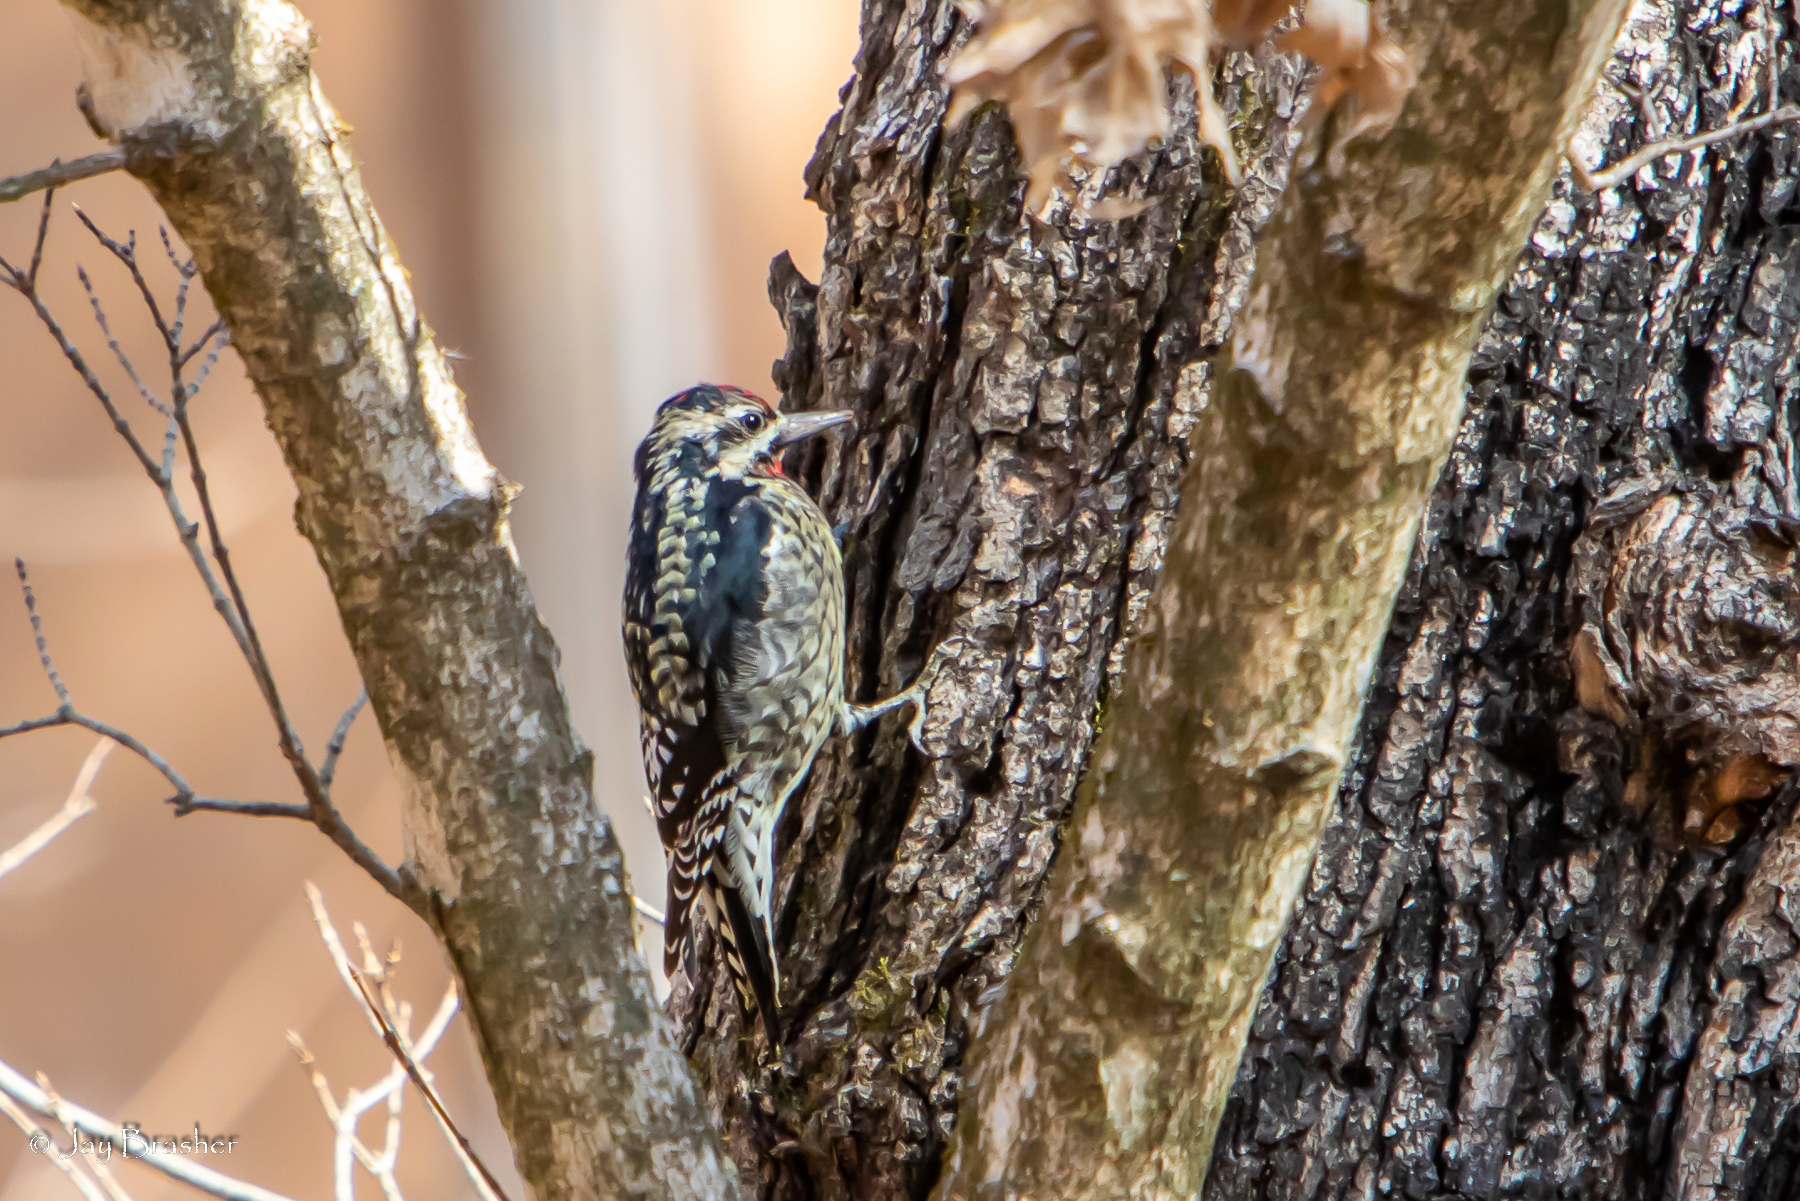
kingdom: Animalia
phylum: Chordata
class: Aves
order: Piciformes
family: Picidae
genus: Sphyrapicus
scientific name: Sphyrapicus varius
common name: Yellow-bellied sapsucker
